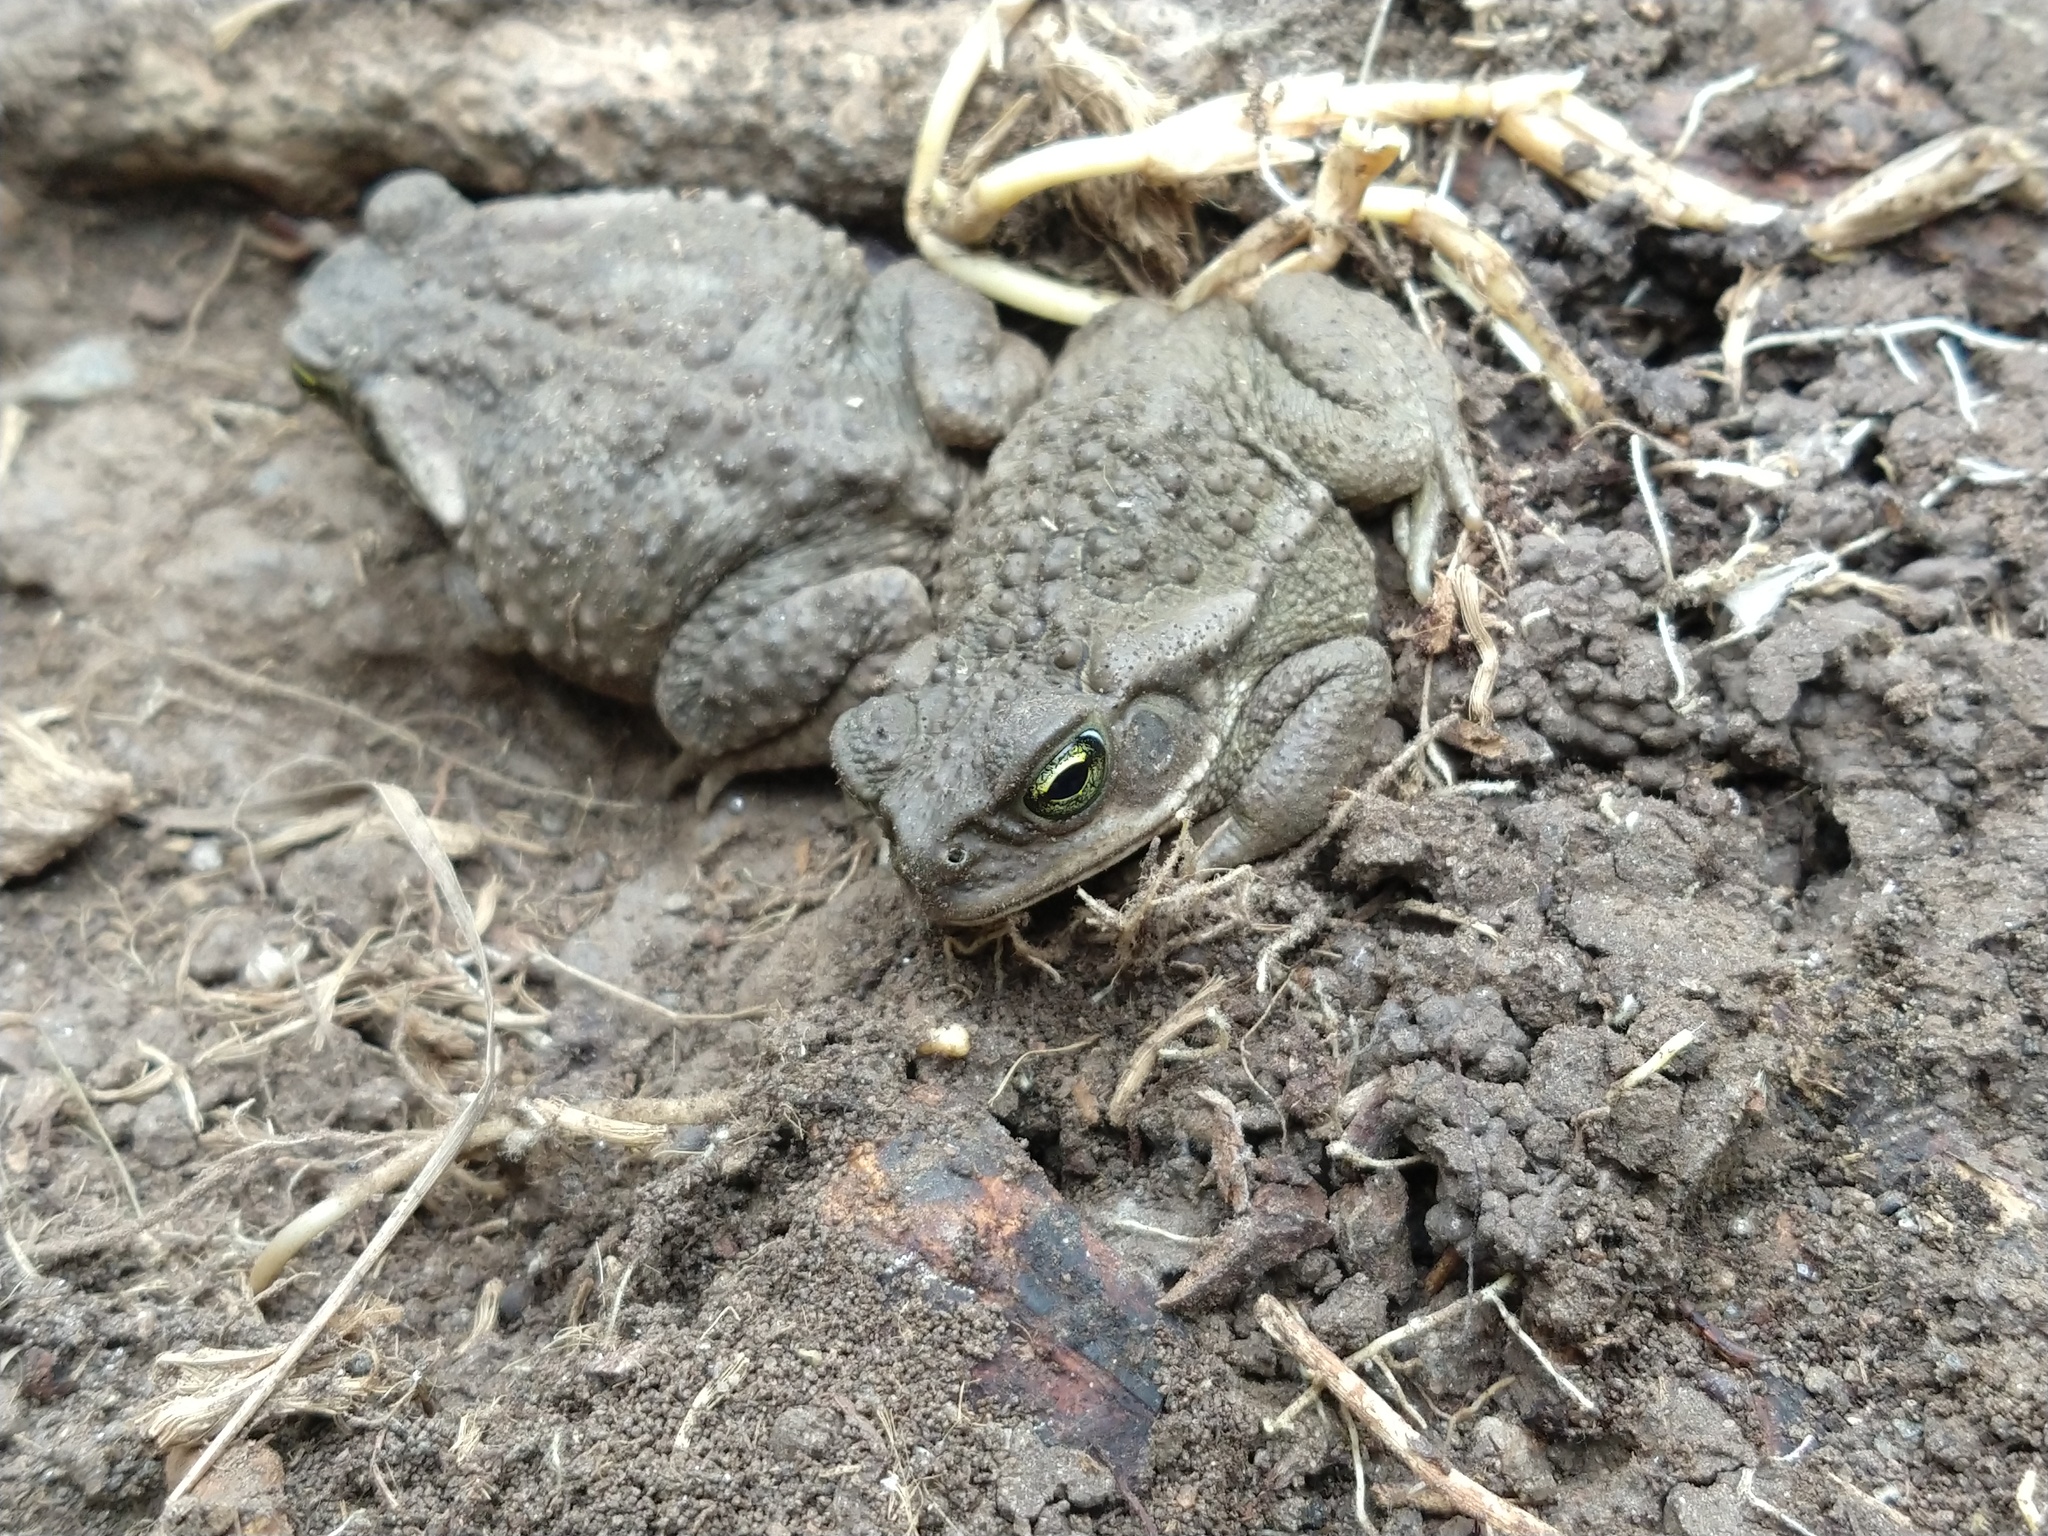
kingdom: Animalia
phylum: Chordata
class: Amphibia
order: Anura
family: Bufonidae
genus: Rhinella
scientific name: Rhinella arenarum
